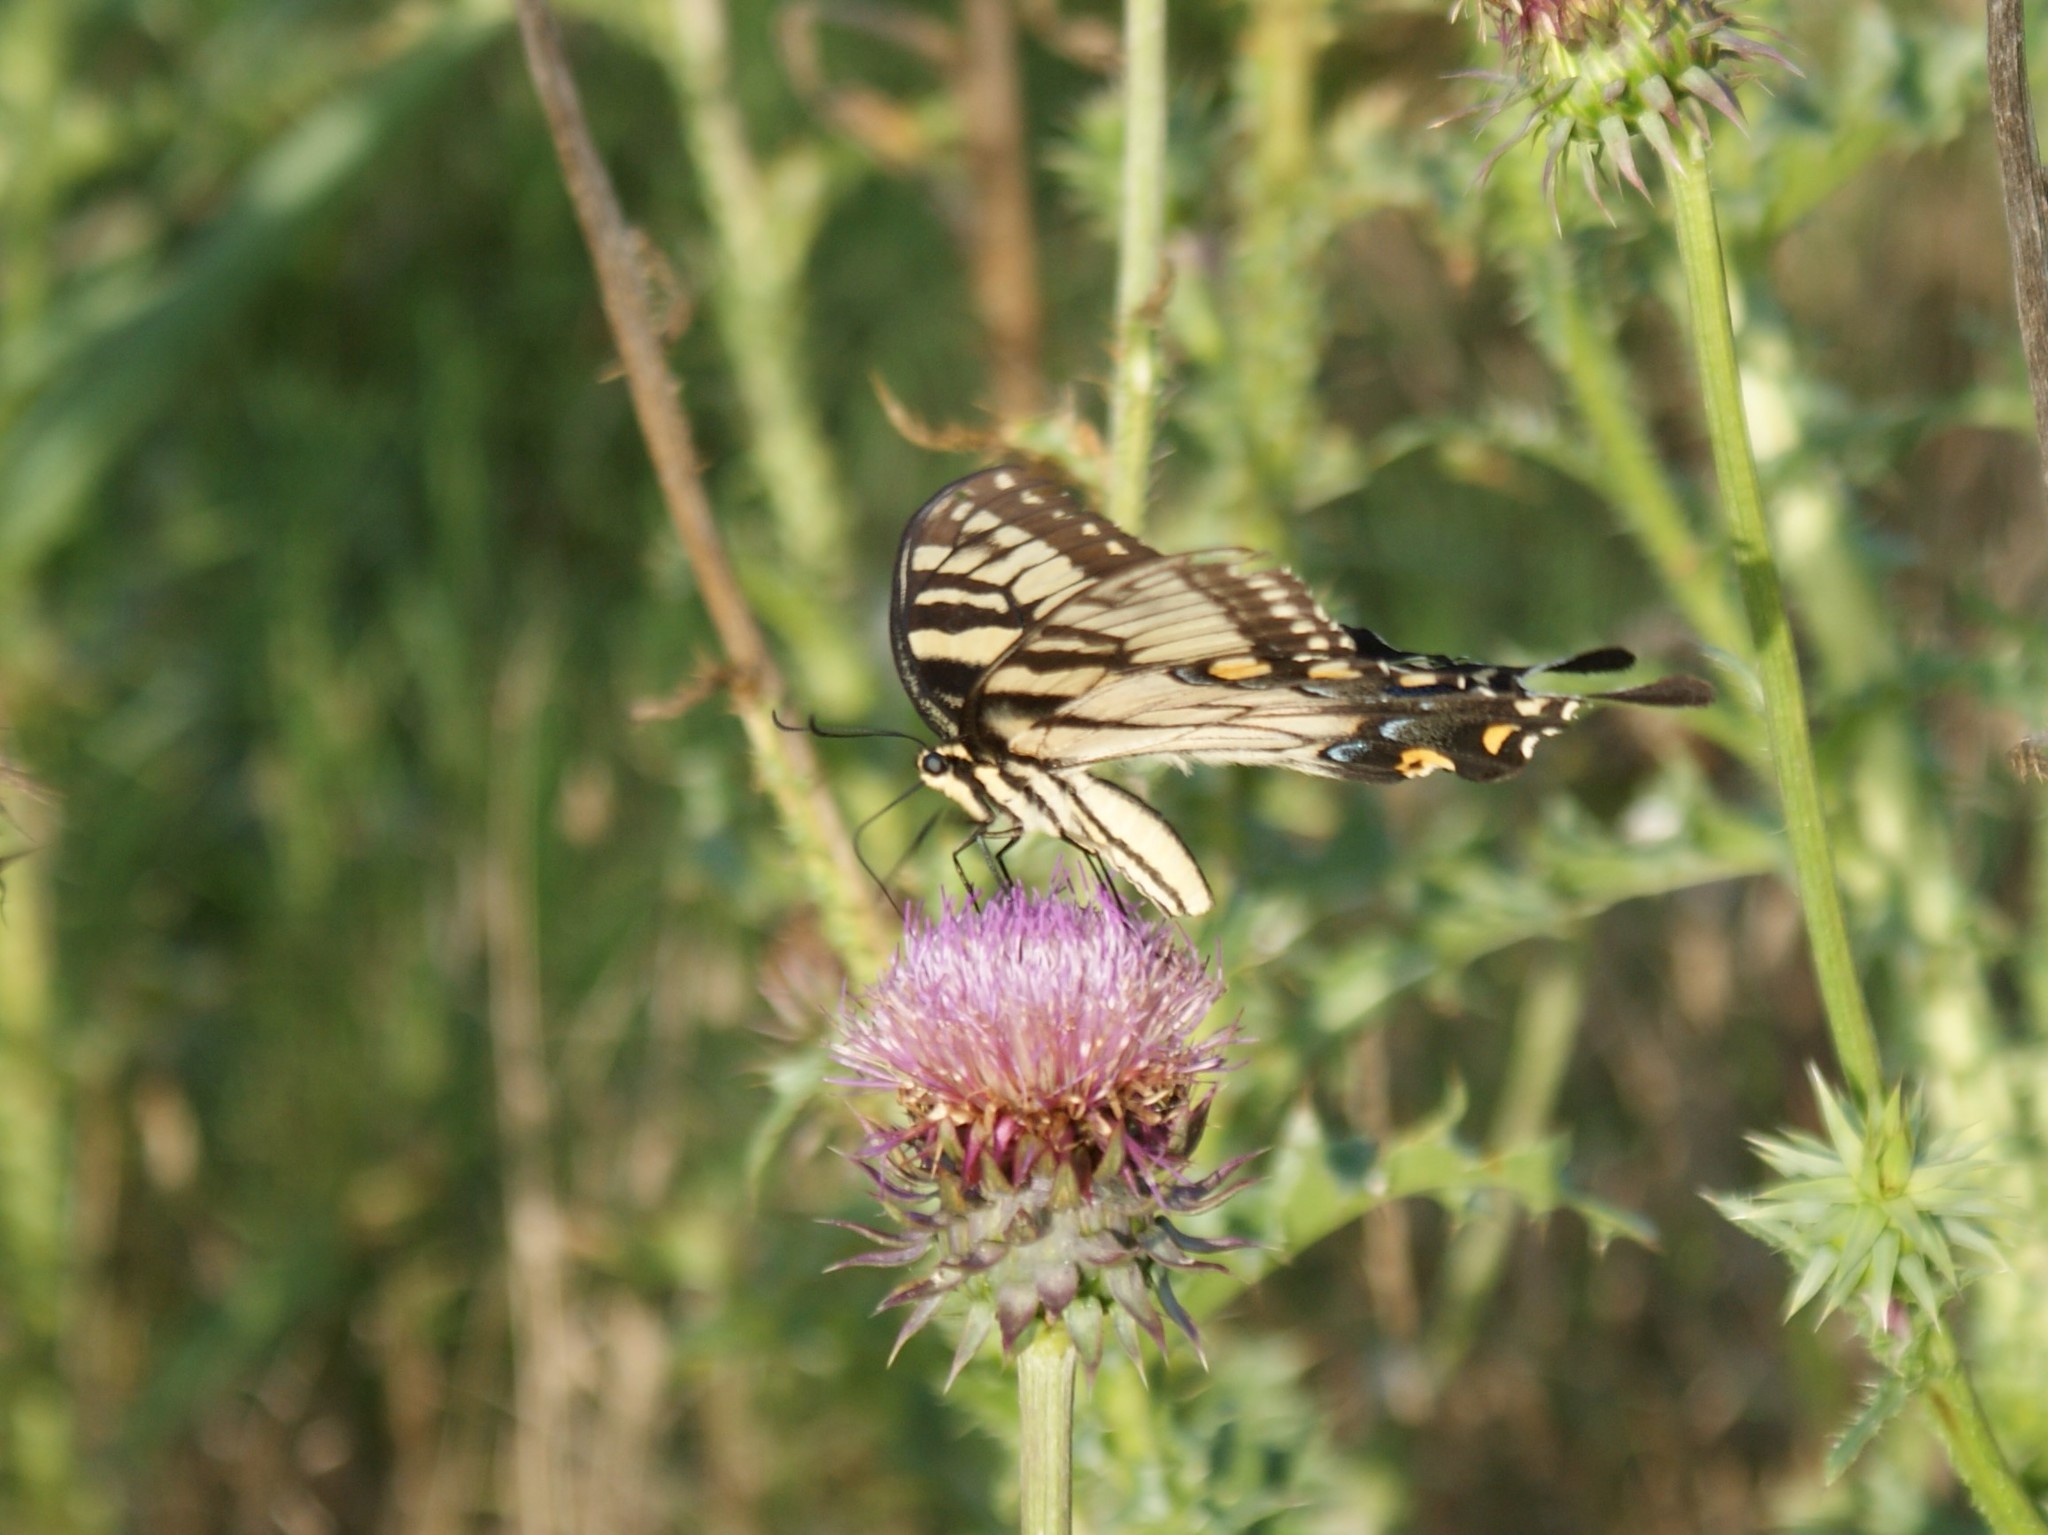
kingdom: Animalia
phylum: Arthropoda
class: Insecta
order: Lepidoptera
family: Papilionidae
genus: Papilio
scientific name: Papilio glaucus
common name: Tiger swallowtail
